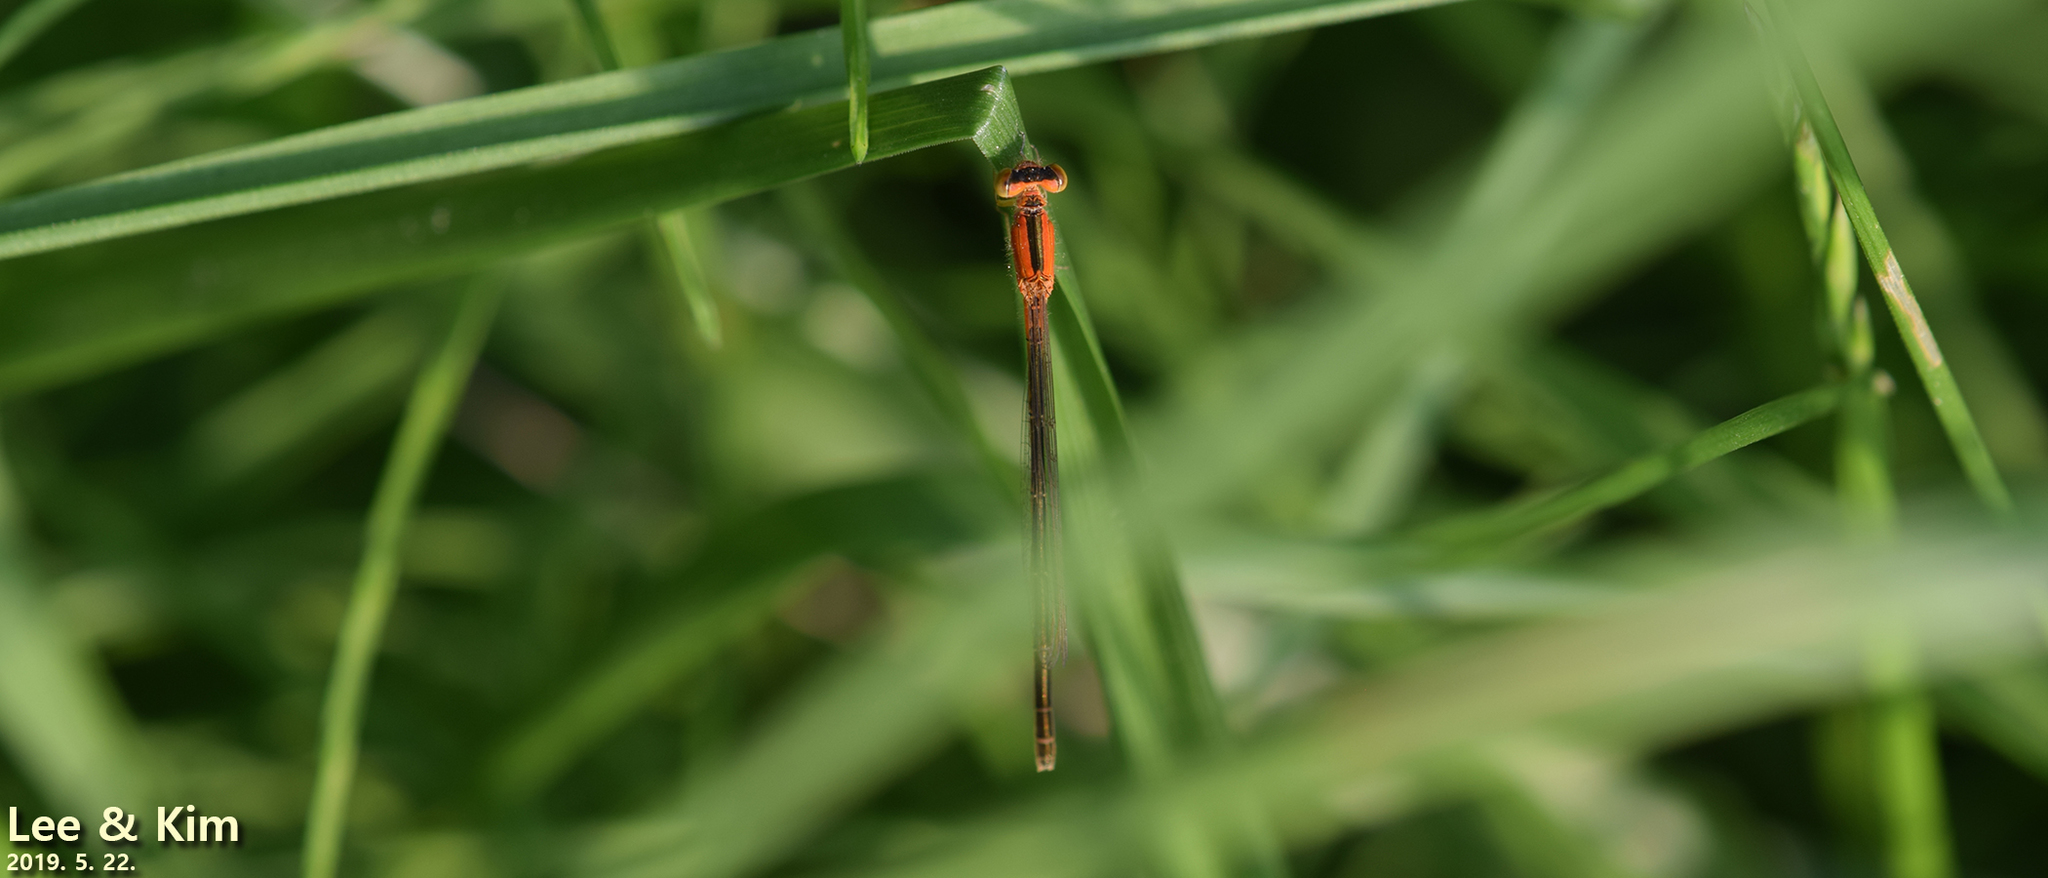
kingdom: Animalia
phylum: Arthropoda
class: Insecta
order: Odonata
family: Coenagrionidae
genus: Ischnura
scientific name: Ischnura asiatica
